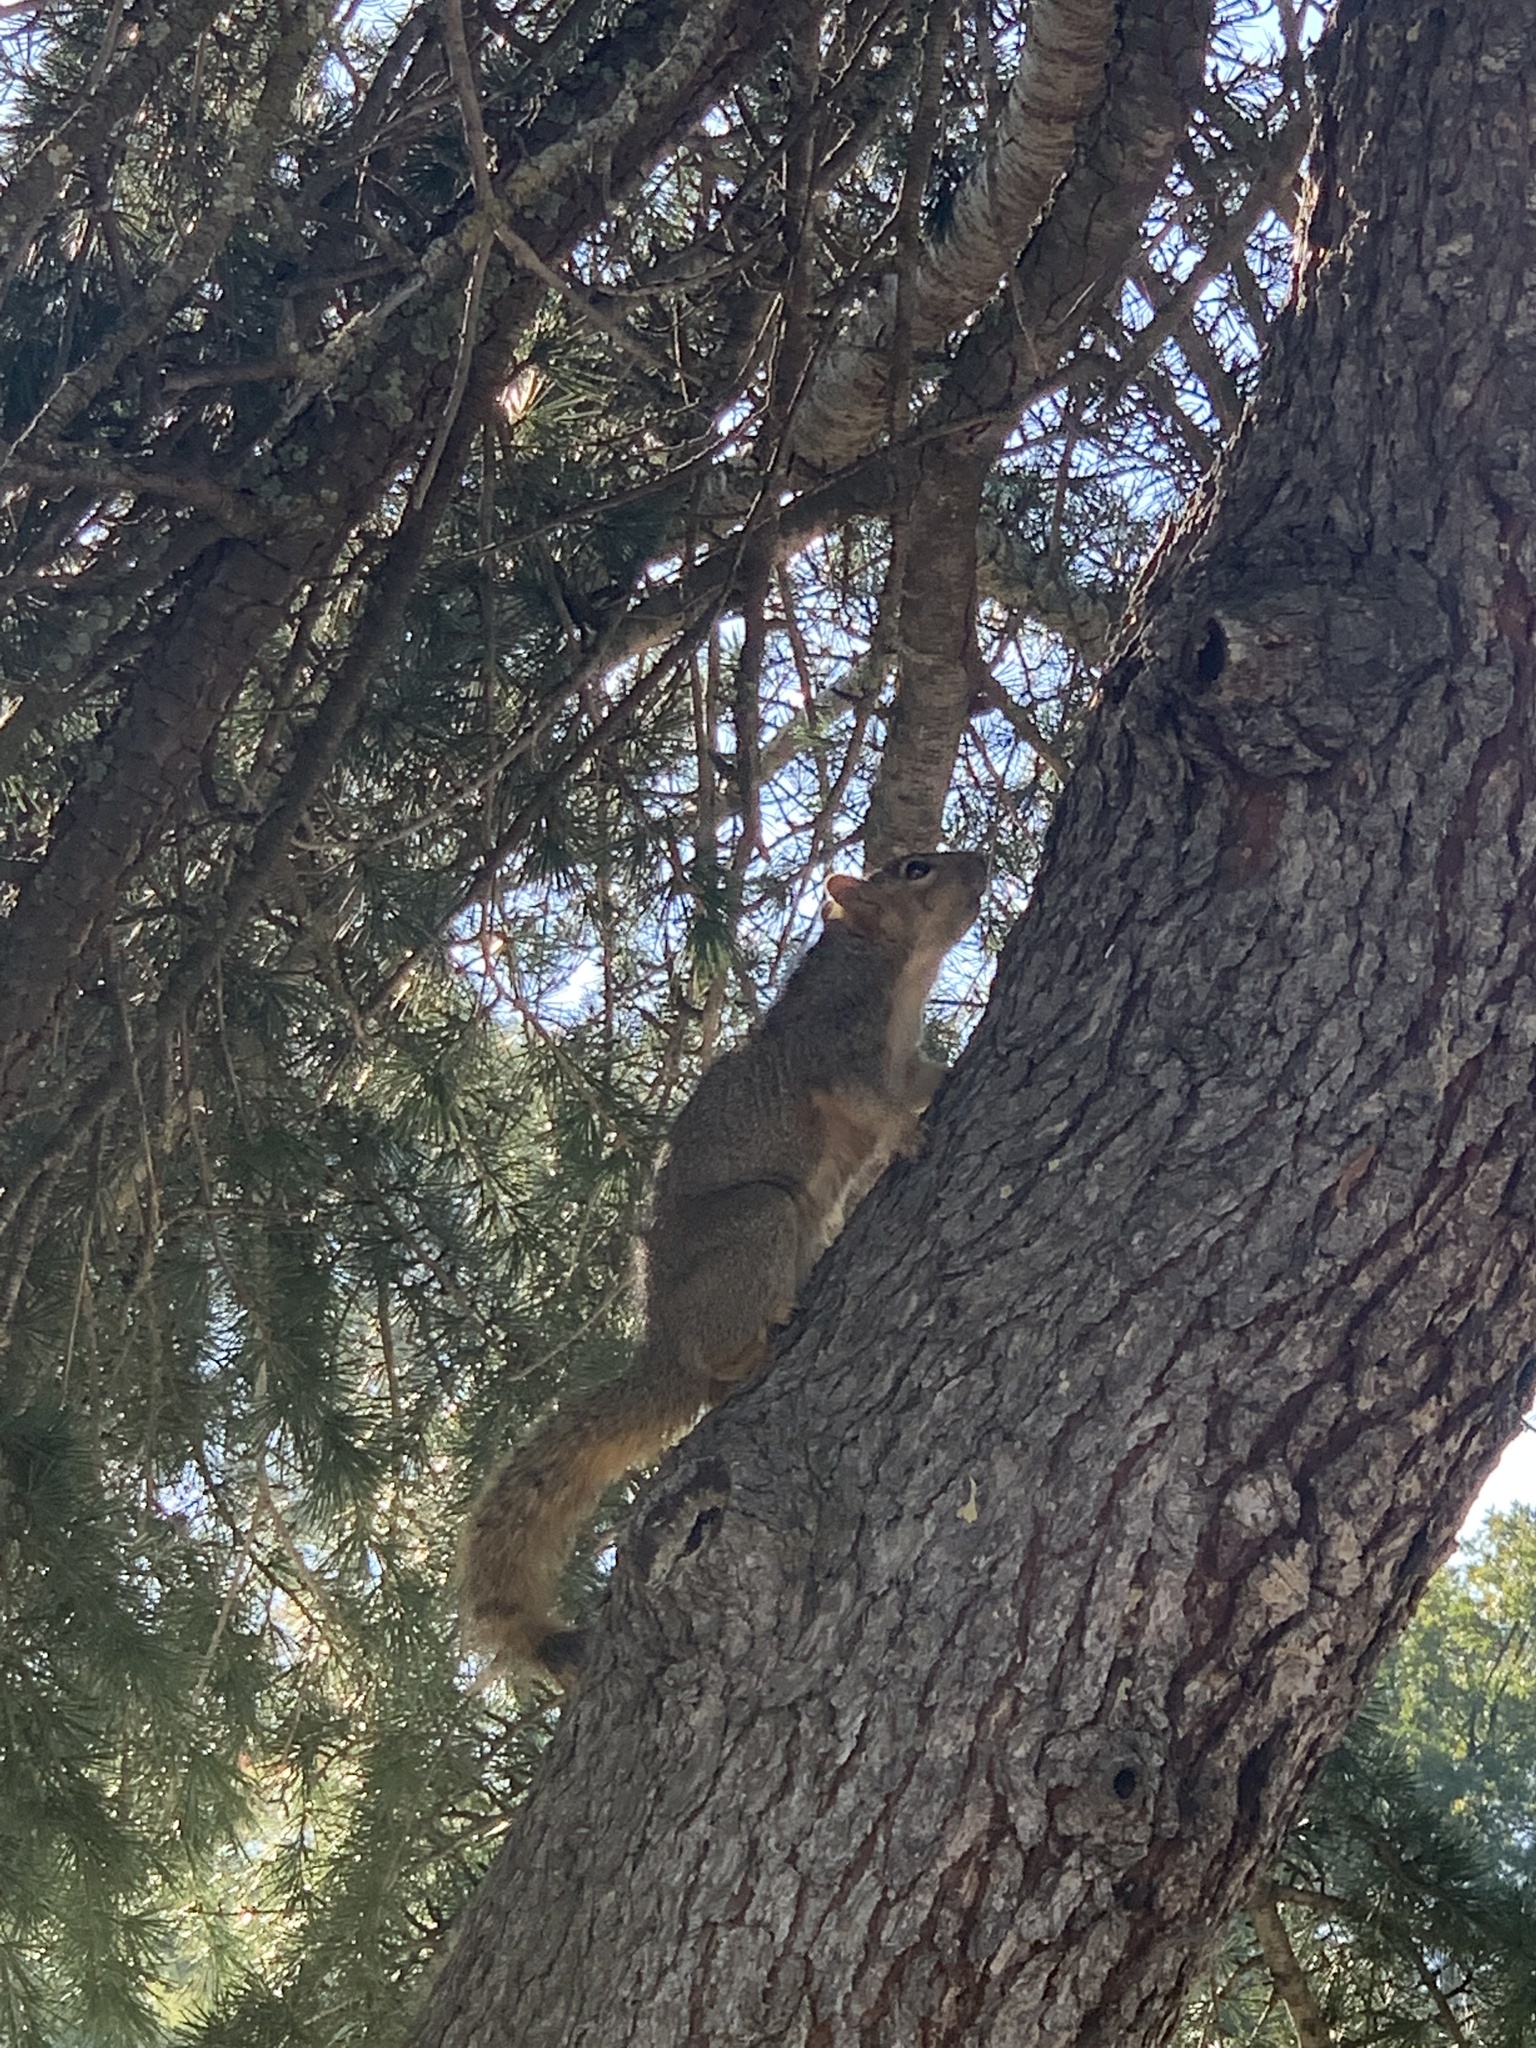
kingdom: Animalia
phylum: Chordata
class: Mammalia
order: Rodentia
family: Sciuridae
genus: Sciurus
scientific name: Sciurus niger
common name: Fox squirrel
